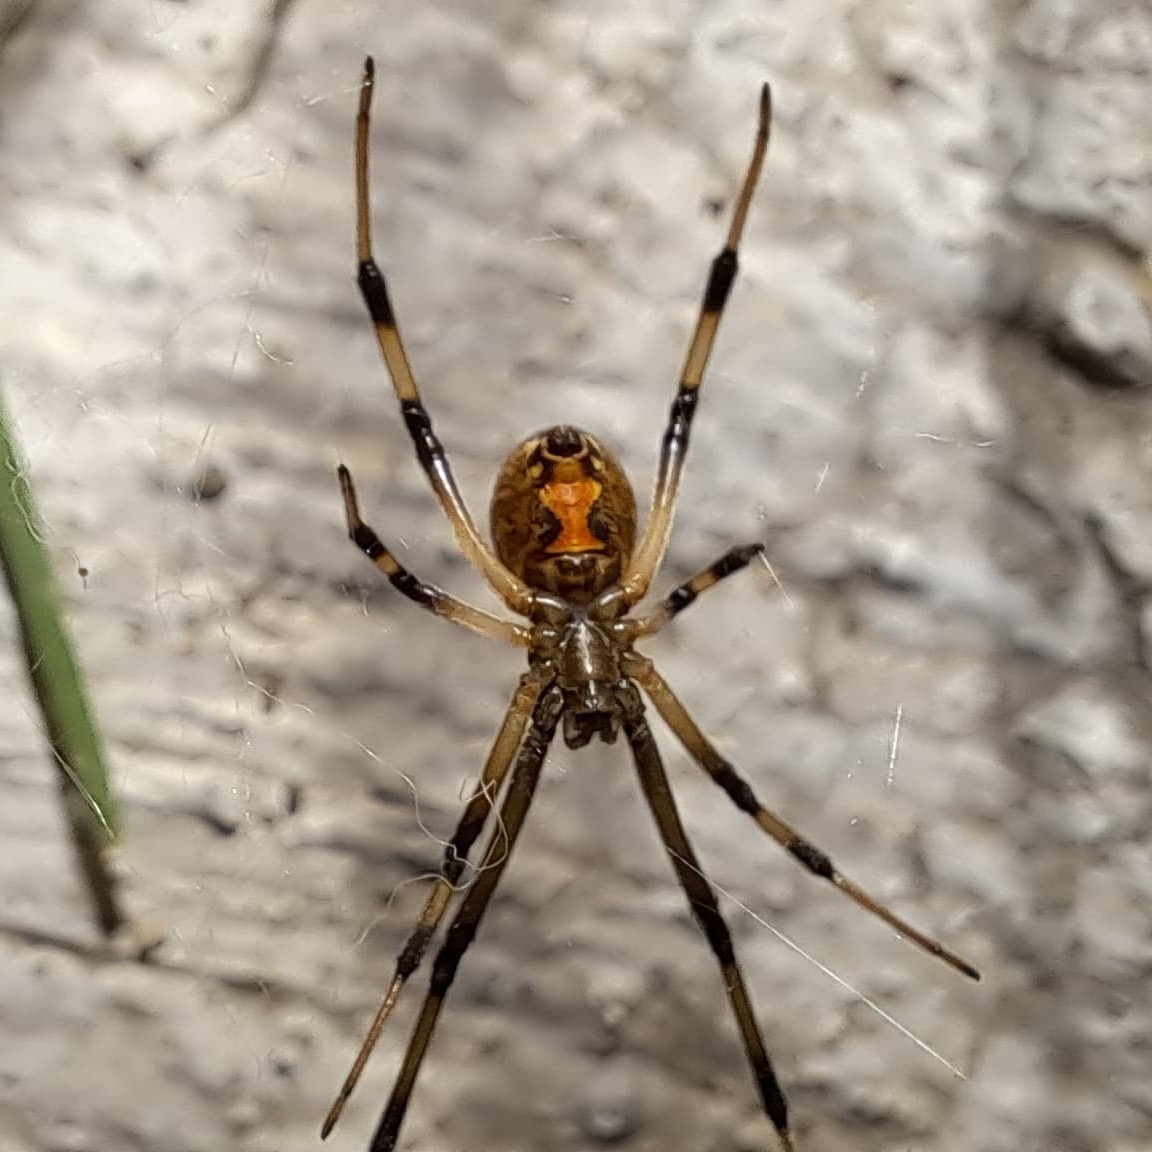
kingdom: Animalia
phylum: Arthropoda
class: Arachnida
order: Araneae
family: Theridiidae
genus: Latrodectus
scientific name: Latrodectus geometricus
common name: Brown widow spider
